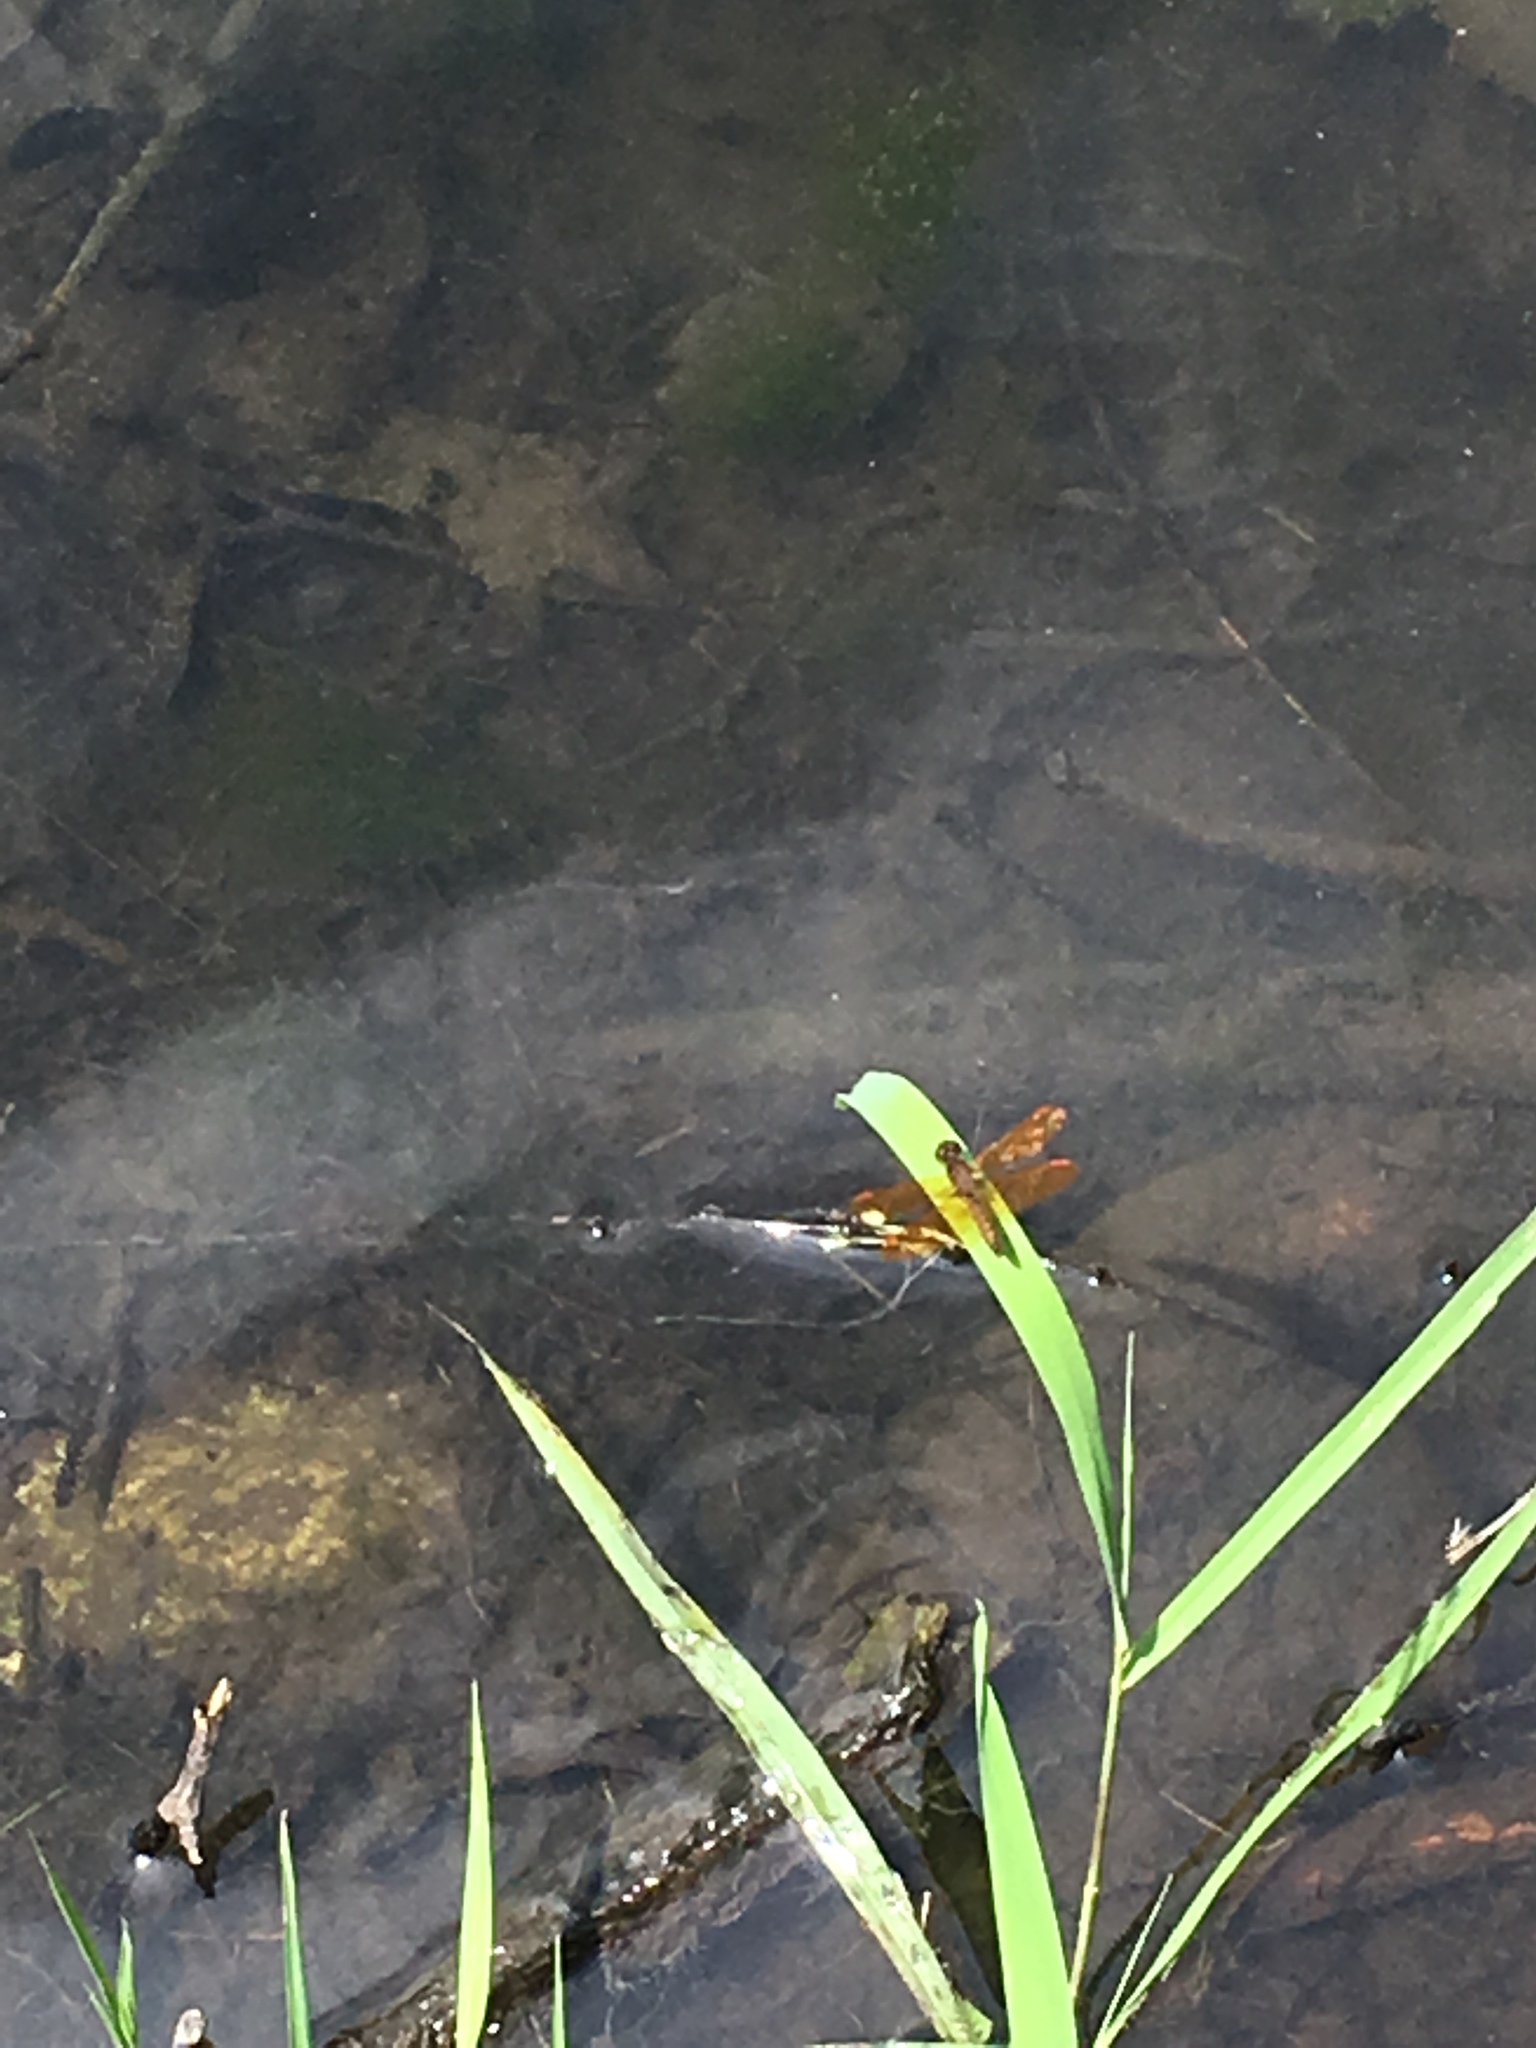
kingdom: Animalia
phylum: Arthropoda
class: Insecta
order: Odonata
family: Libellulidae
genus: Perithemis
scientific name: Perithemis tenera
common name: Eastern amberwing
